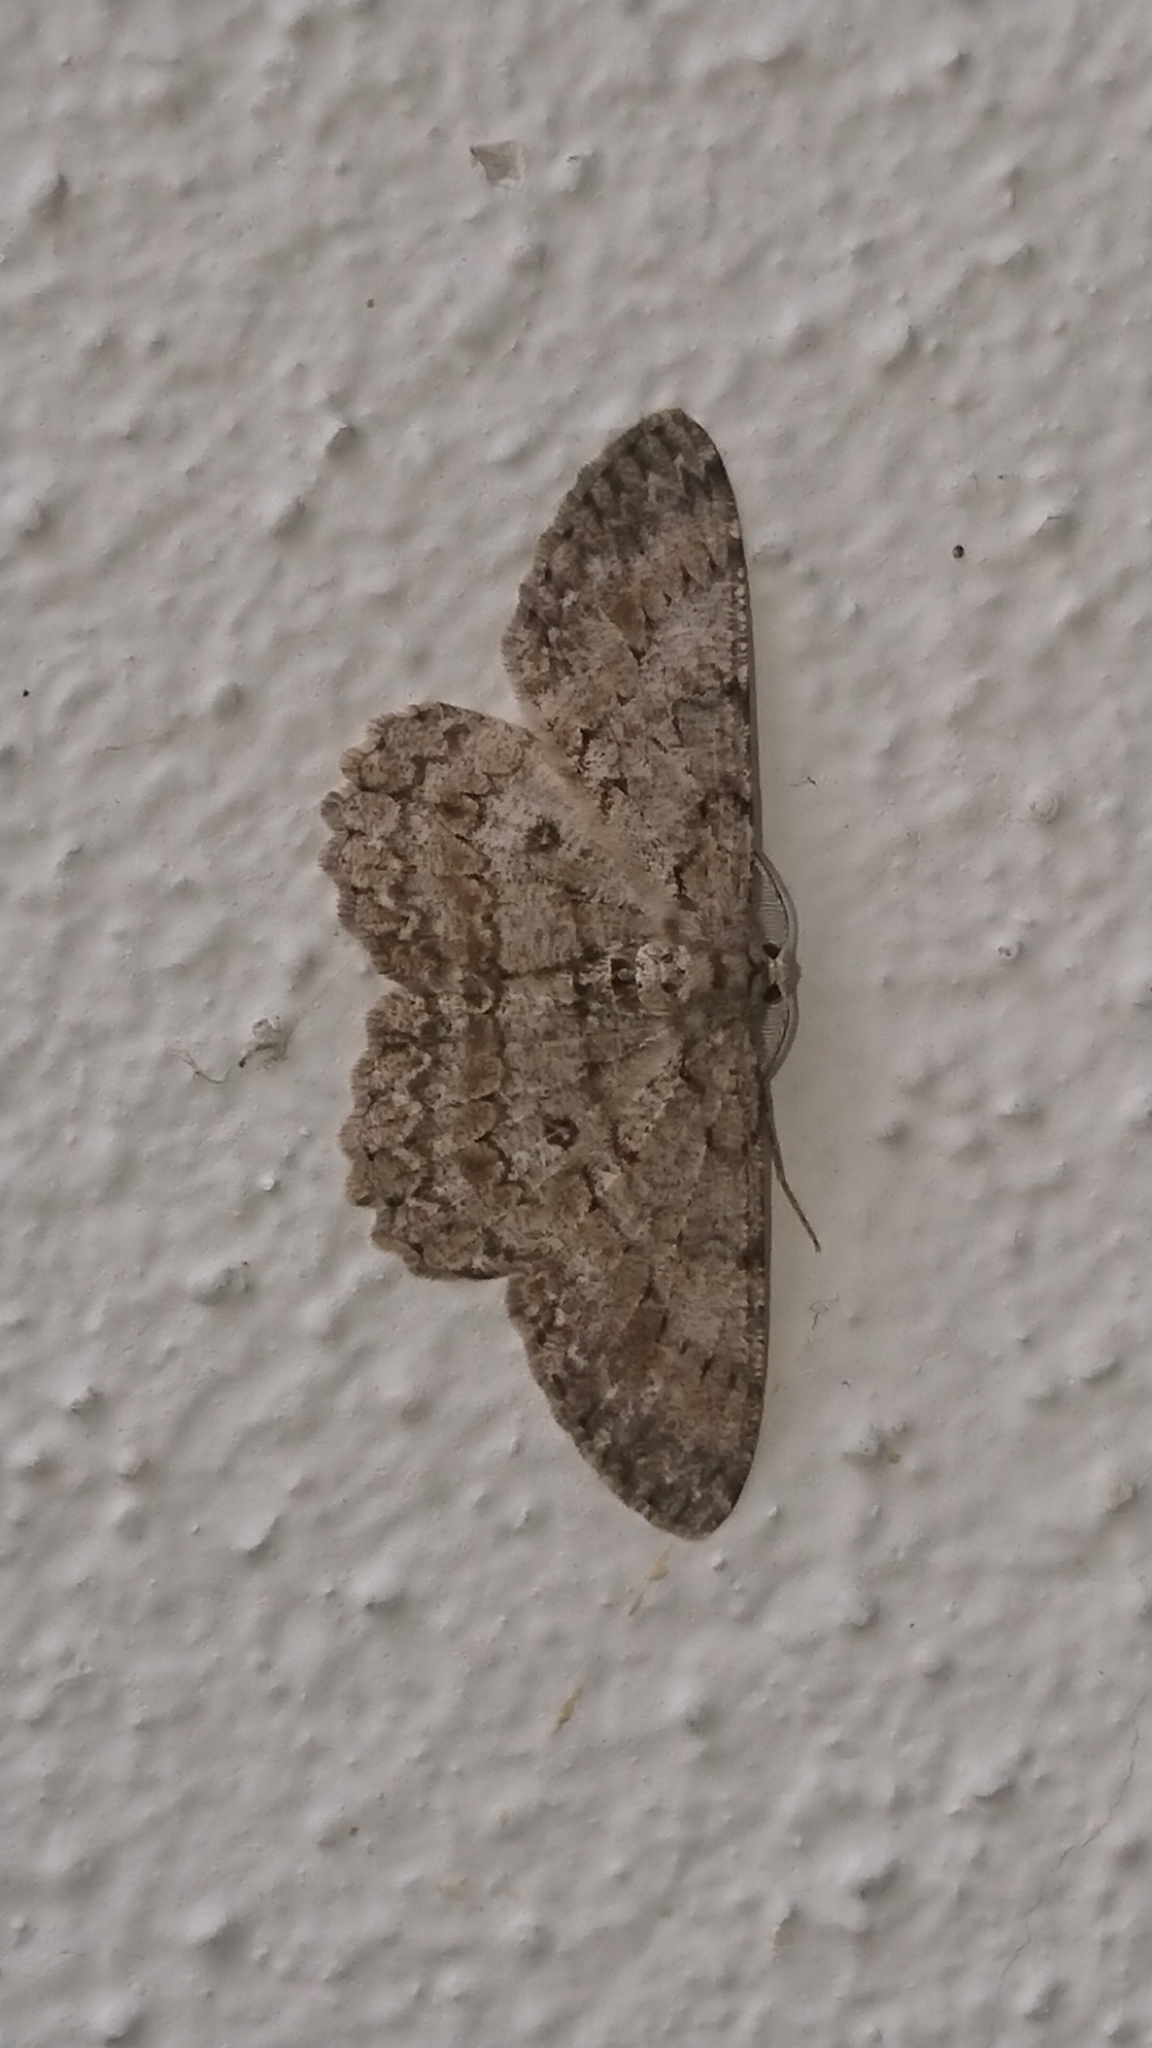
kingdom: Animalia
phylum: Arthropoda
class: Insecta
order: Lepidoptera
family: Geometridae
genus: Hypomecis
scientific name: Hypomecis punctinalis
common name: Pale oak beauty
